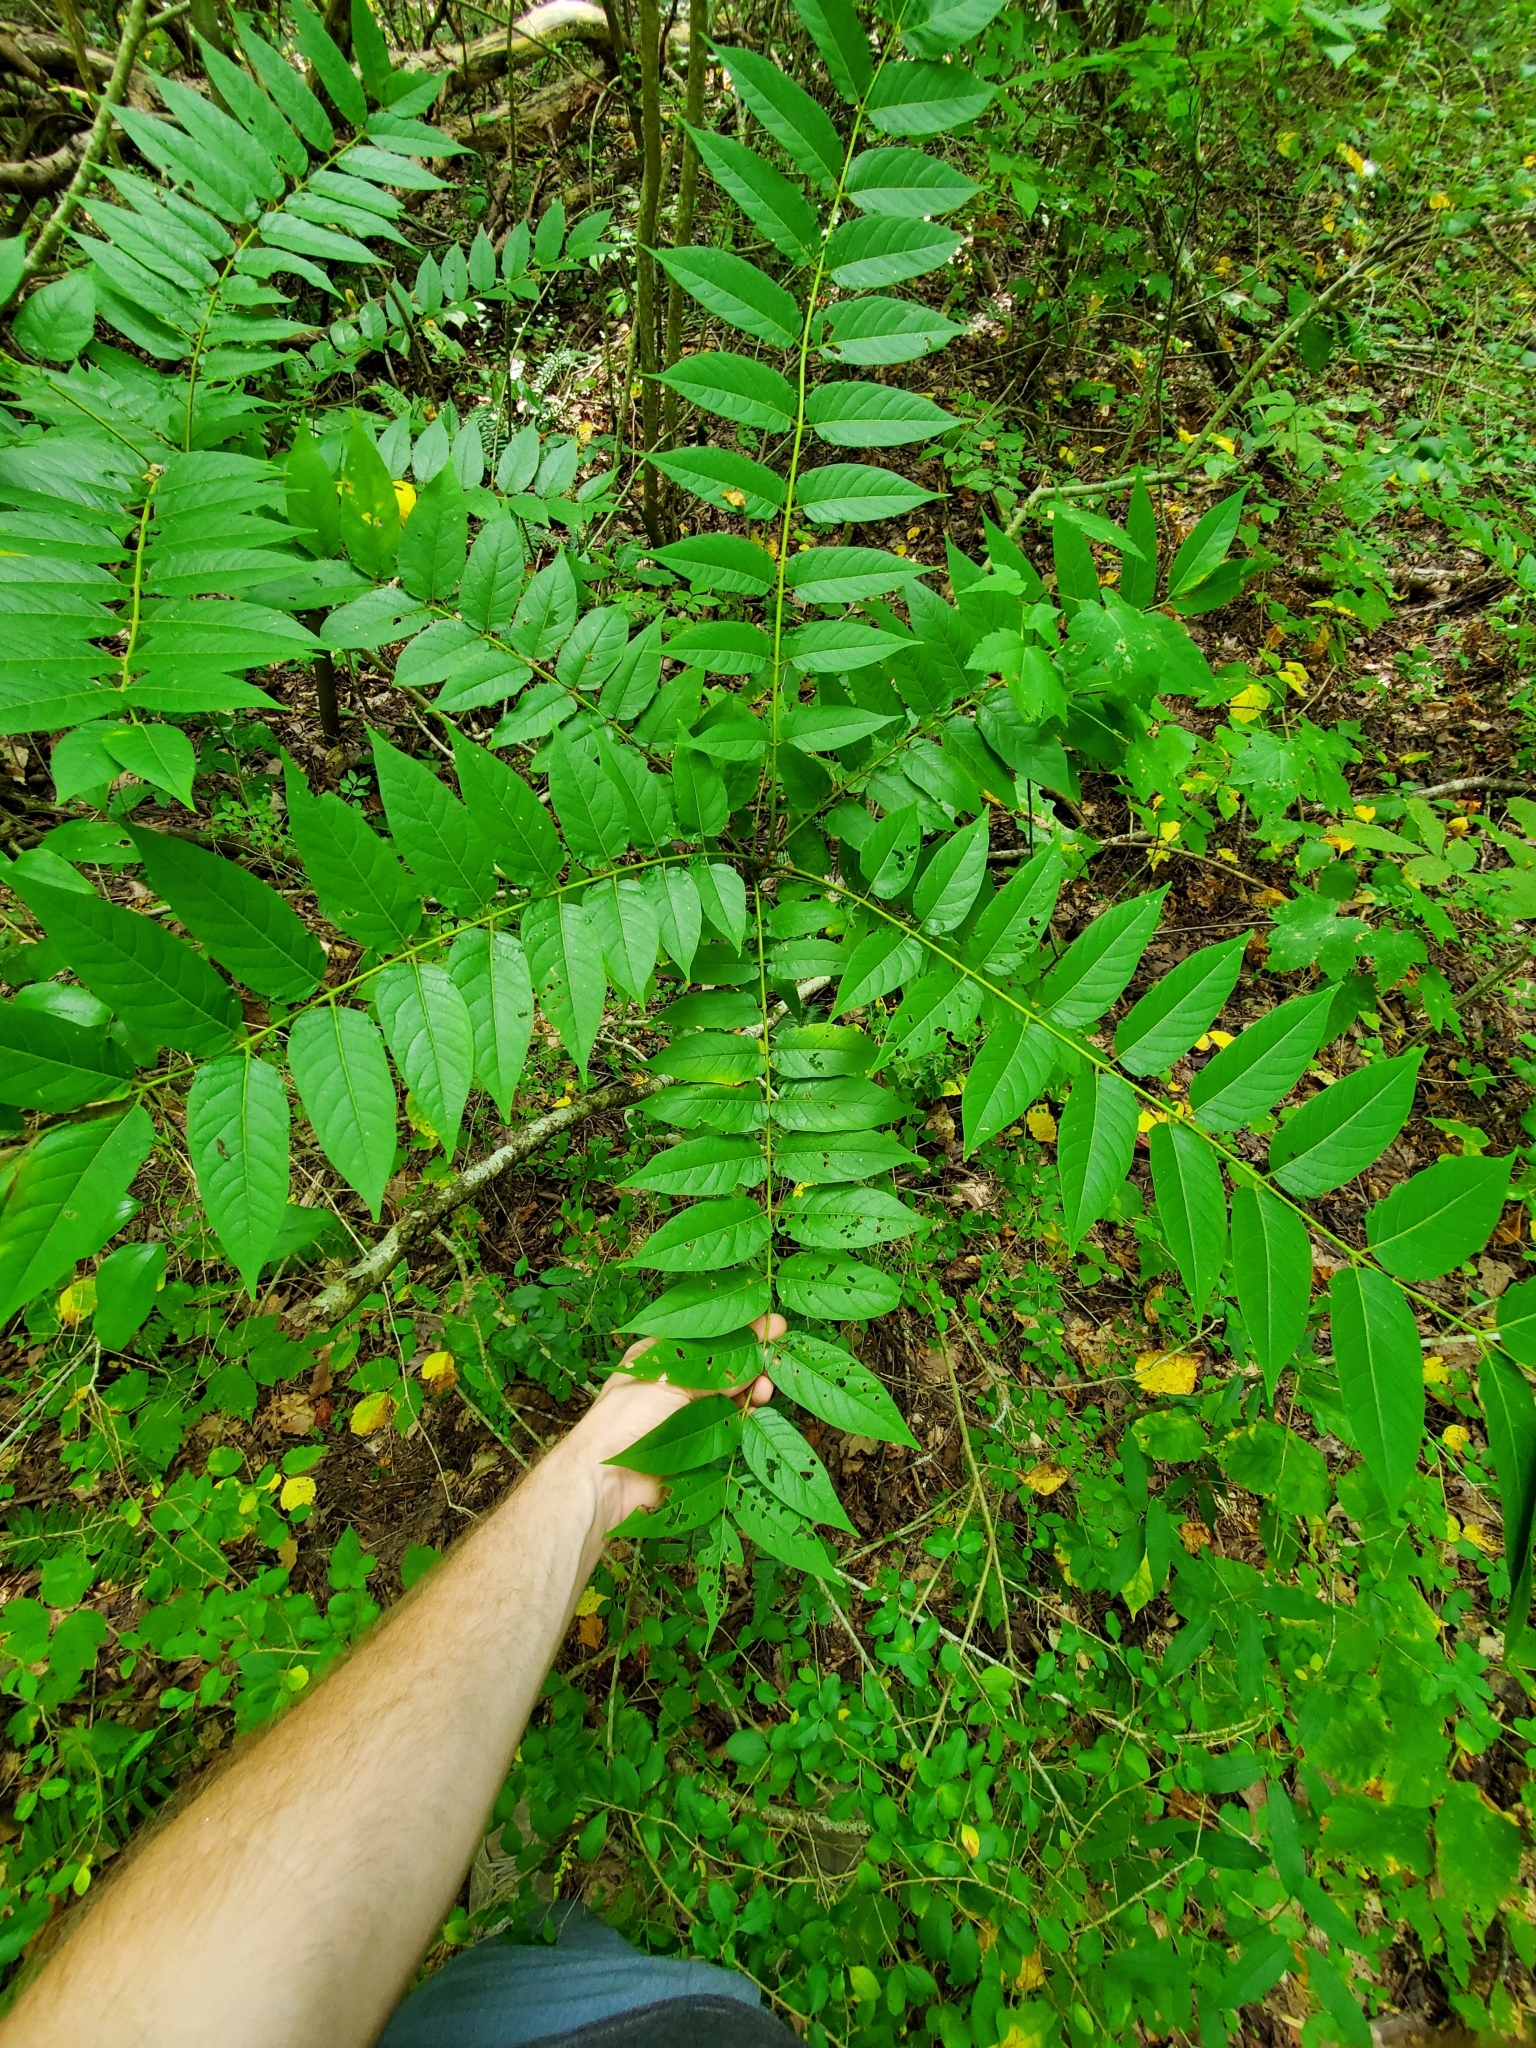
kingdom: Plantae
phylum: Tracheophyta
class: Magnoliopsida
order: Sapindales
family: Simaroubaceae
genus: Ailanthus
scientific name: Ailanthus altissima
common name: Tree-of-heaven
